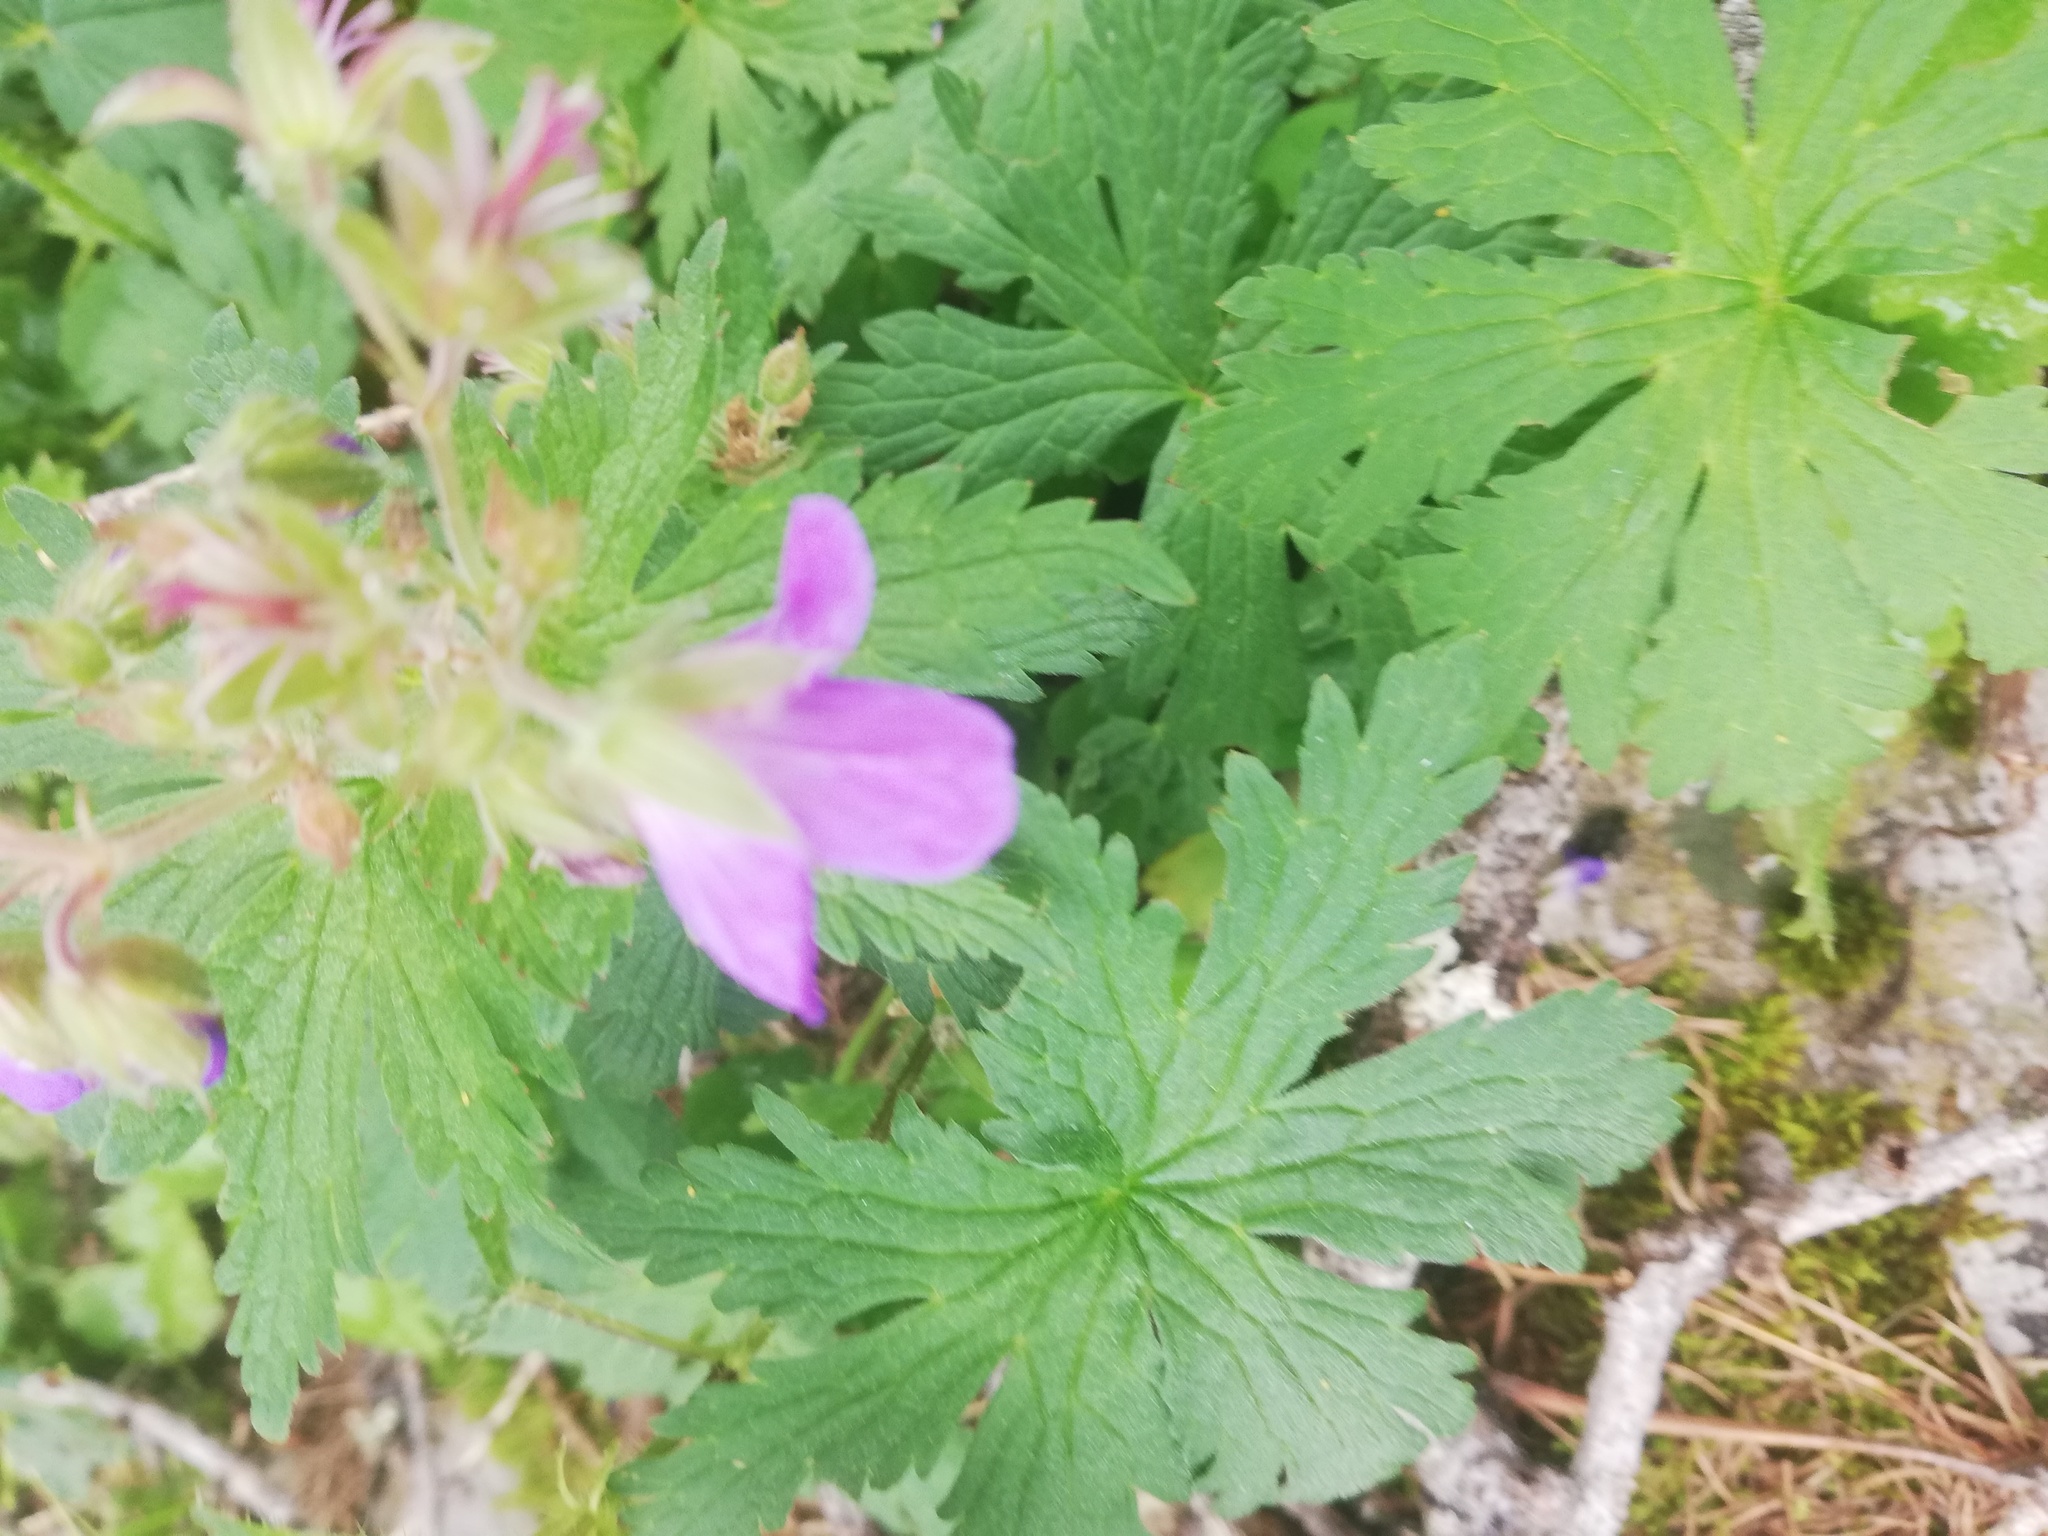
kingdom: Plantae
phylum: Tracheophyta
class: Magnoliopsida
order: Geraniales
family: Geraniaceae
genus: Geranium
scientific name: Geranium sylvaticum
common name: Wood crane's-bill
